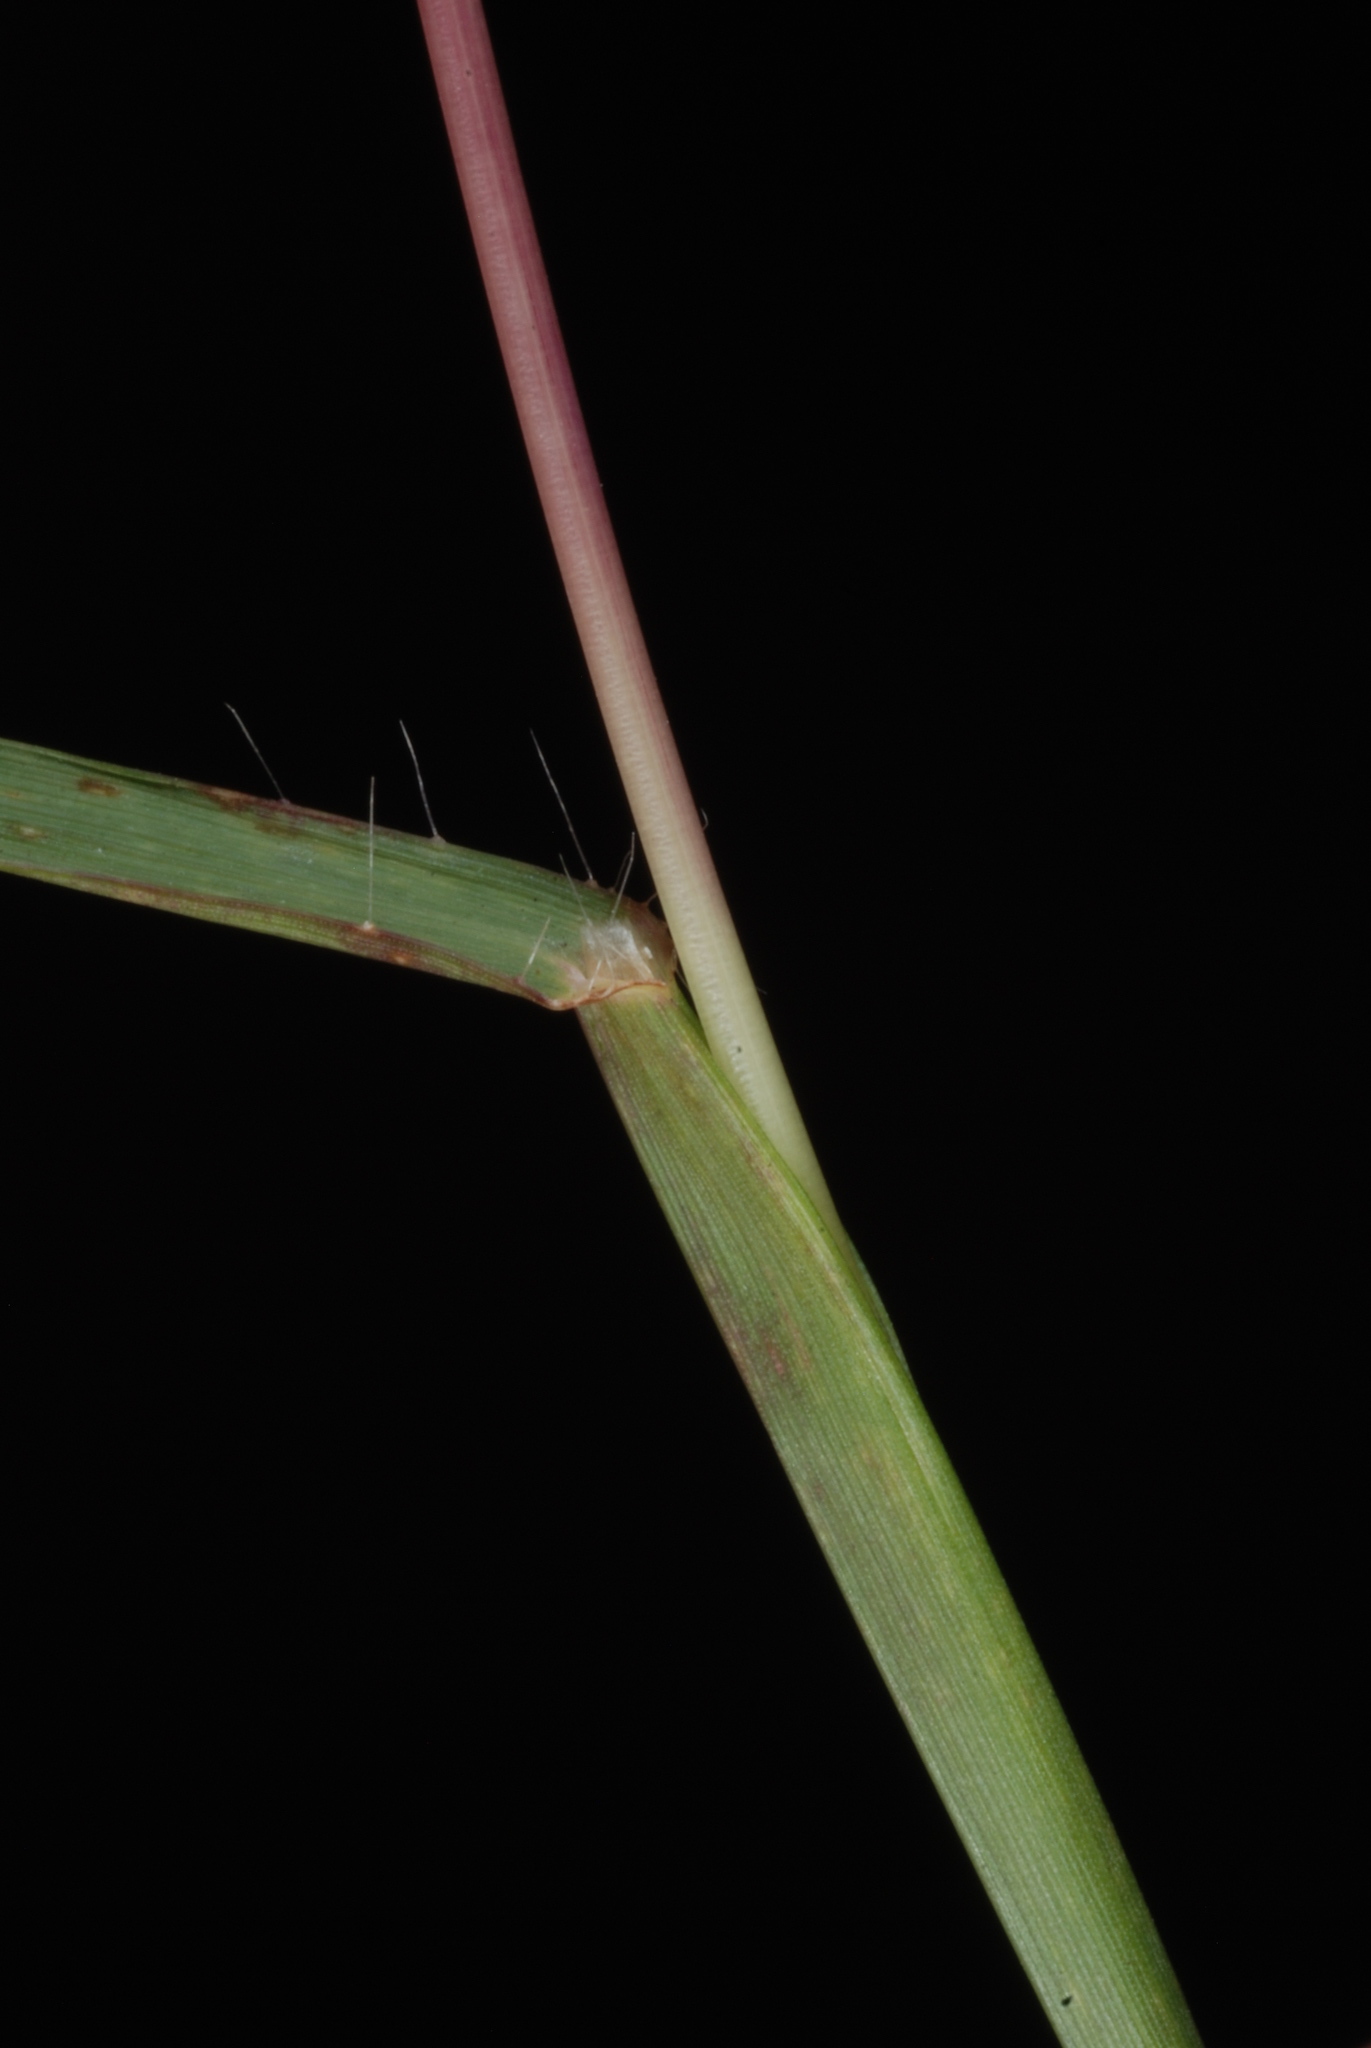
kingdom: Plantae
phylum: Tracheophyta
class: Liliopsida
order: Poales
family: Poaceae
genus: Heteropogon
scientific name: Heteropogon contortus
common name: Tanglehead
